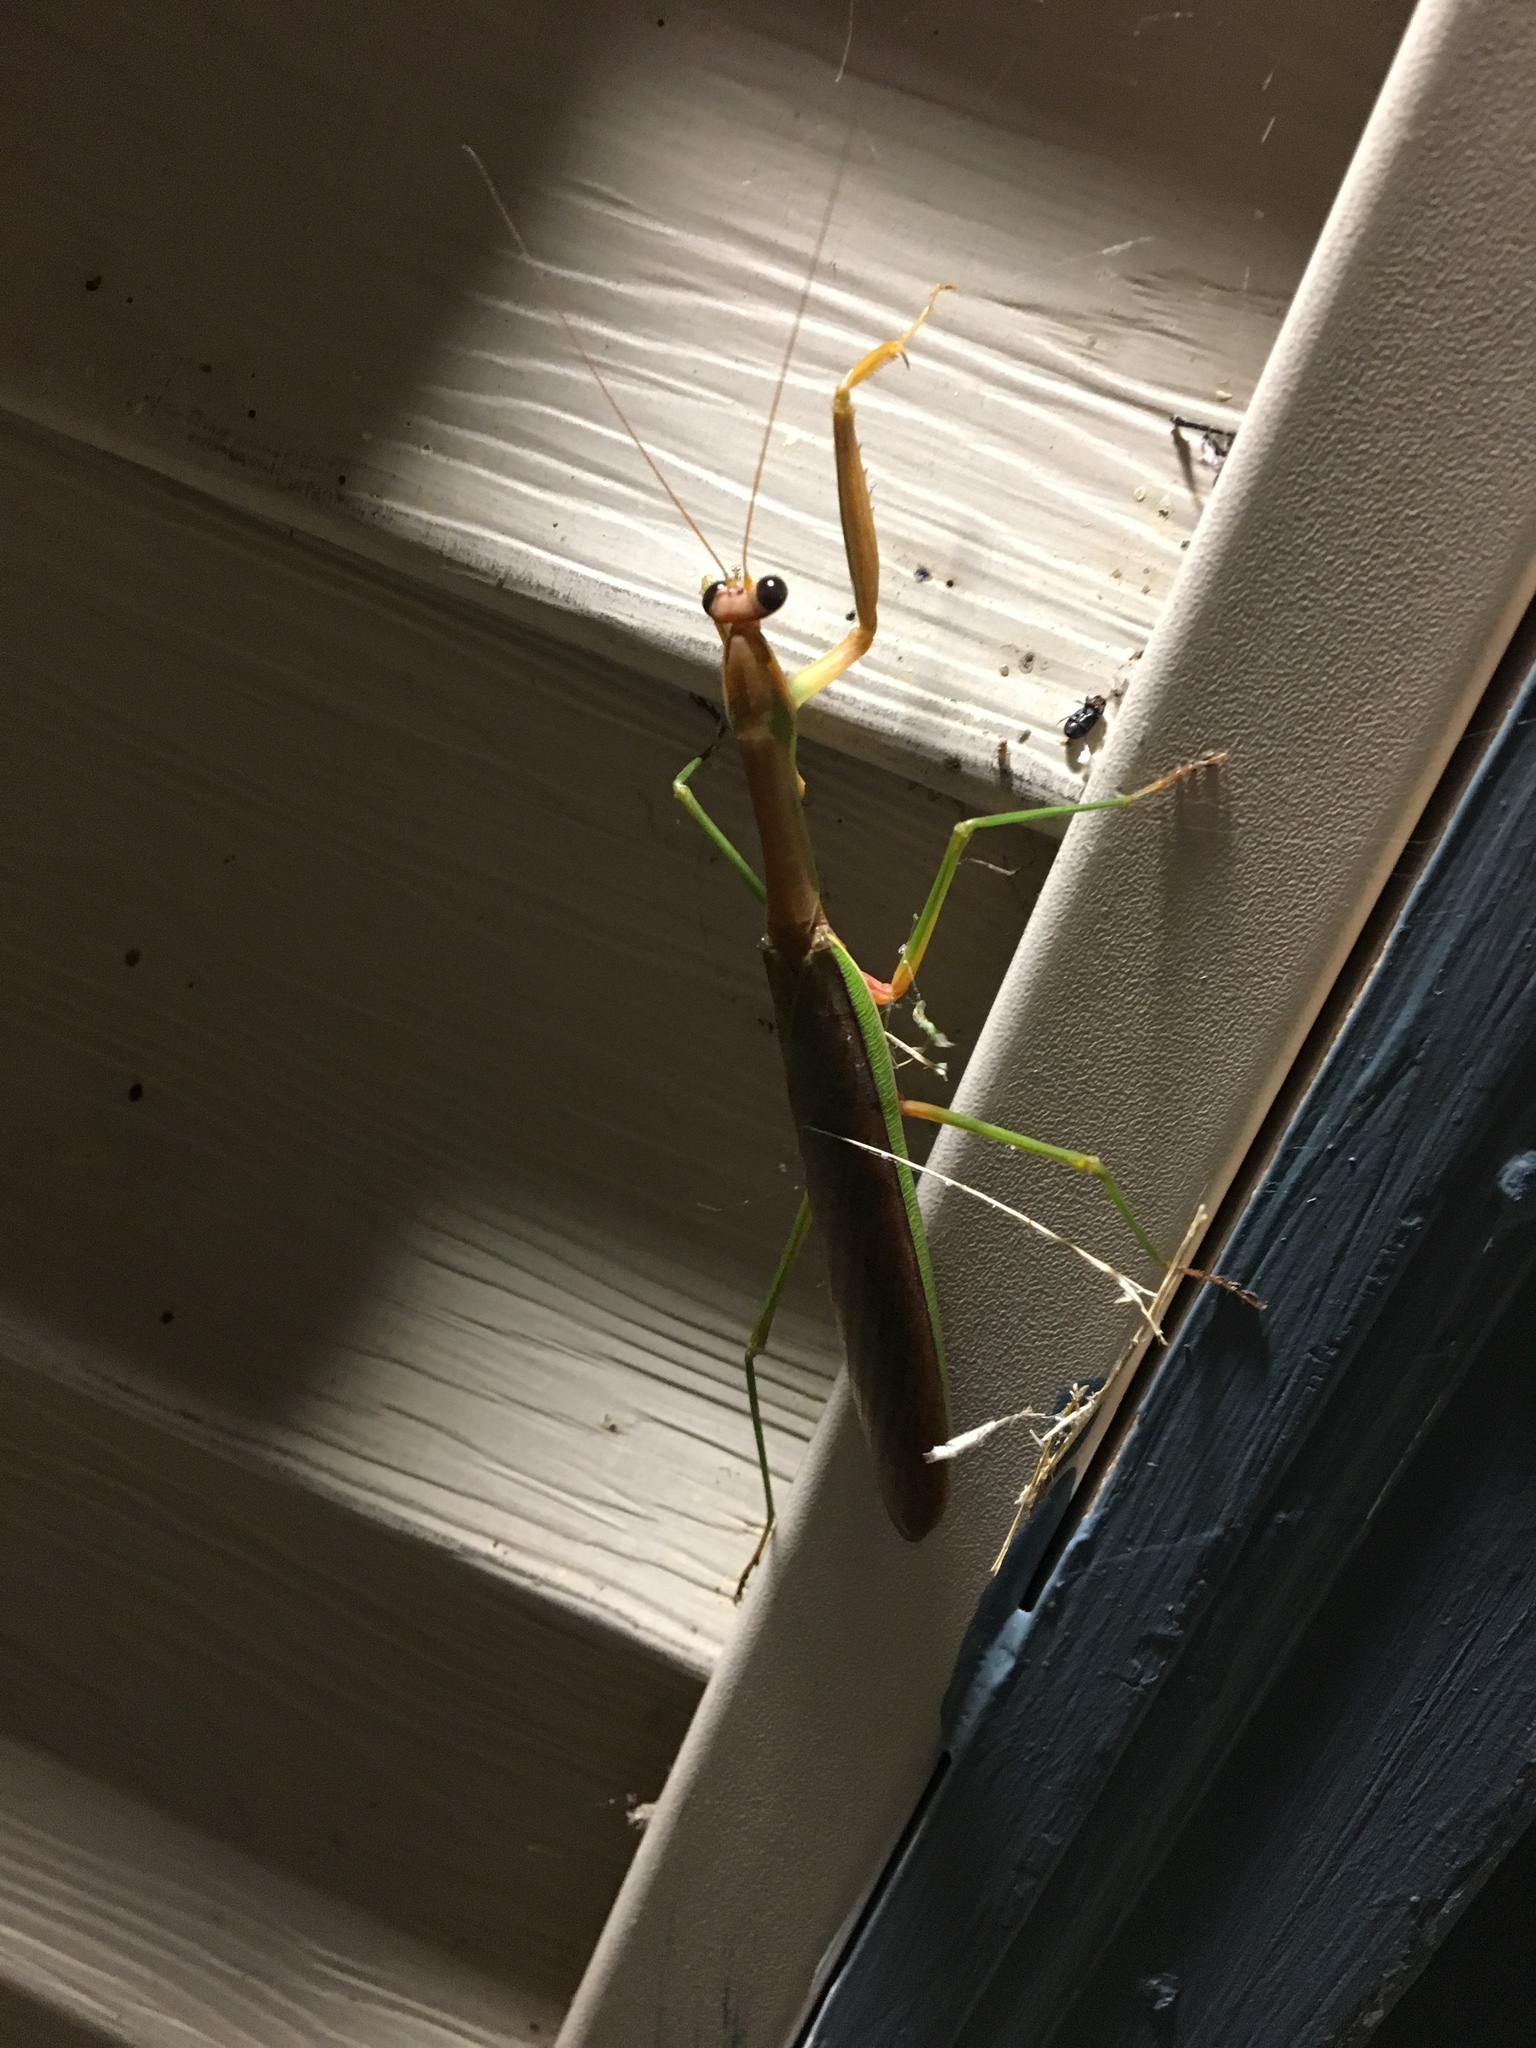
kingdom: Animalia
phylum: Arthropoda
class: Insecta
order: Mantodea
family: Mantidae
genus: Tenodera
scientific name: Tenodera sinensis
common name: Chinese mantis
